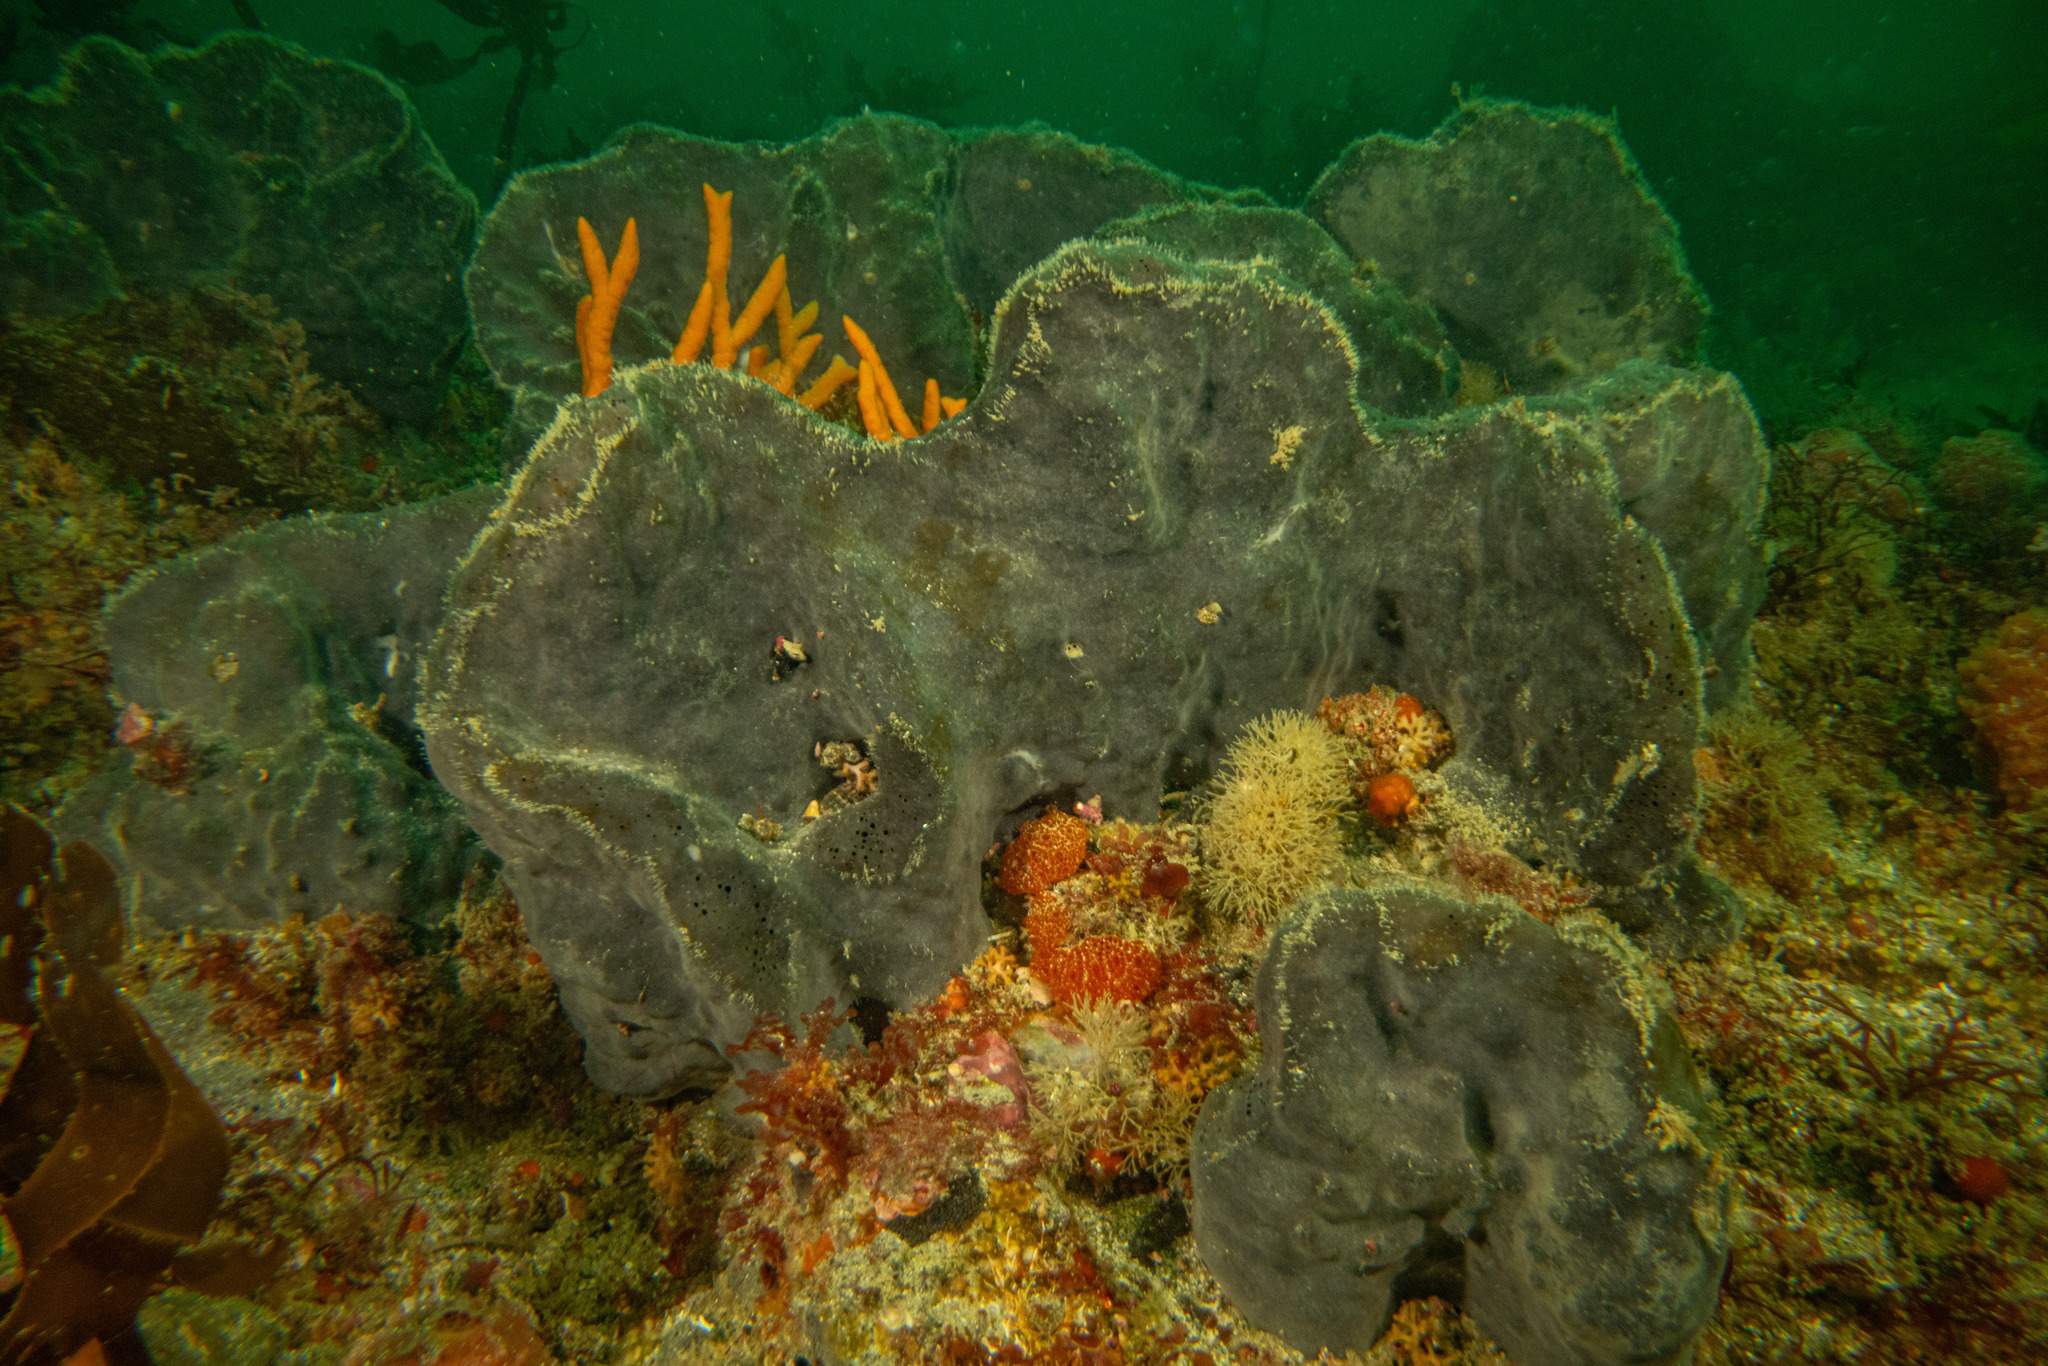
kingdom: Animalia
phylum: Porifera
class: Demospongiae
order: Tetractinellida
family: Ancorinidae
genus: Stelletta
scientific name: Stelletta conulosa
